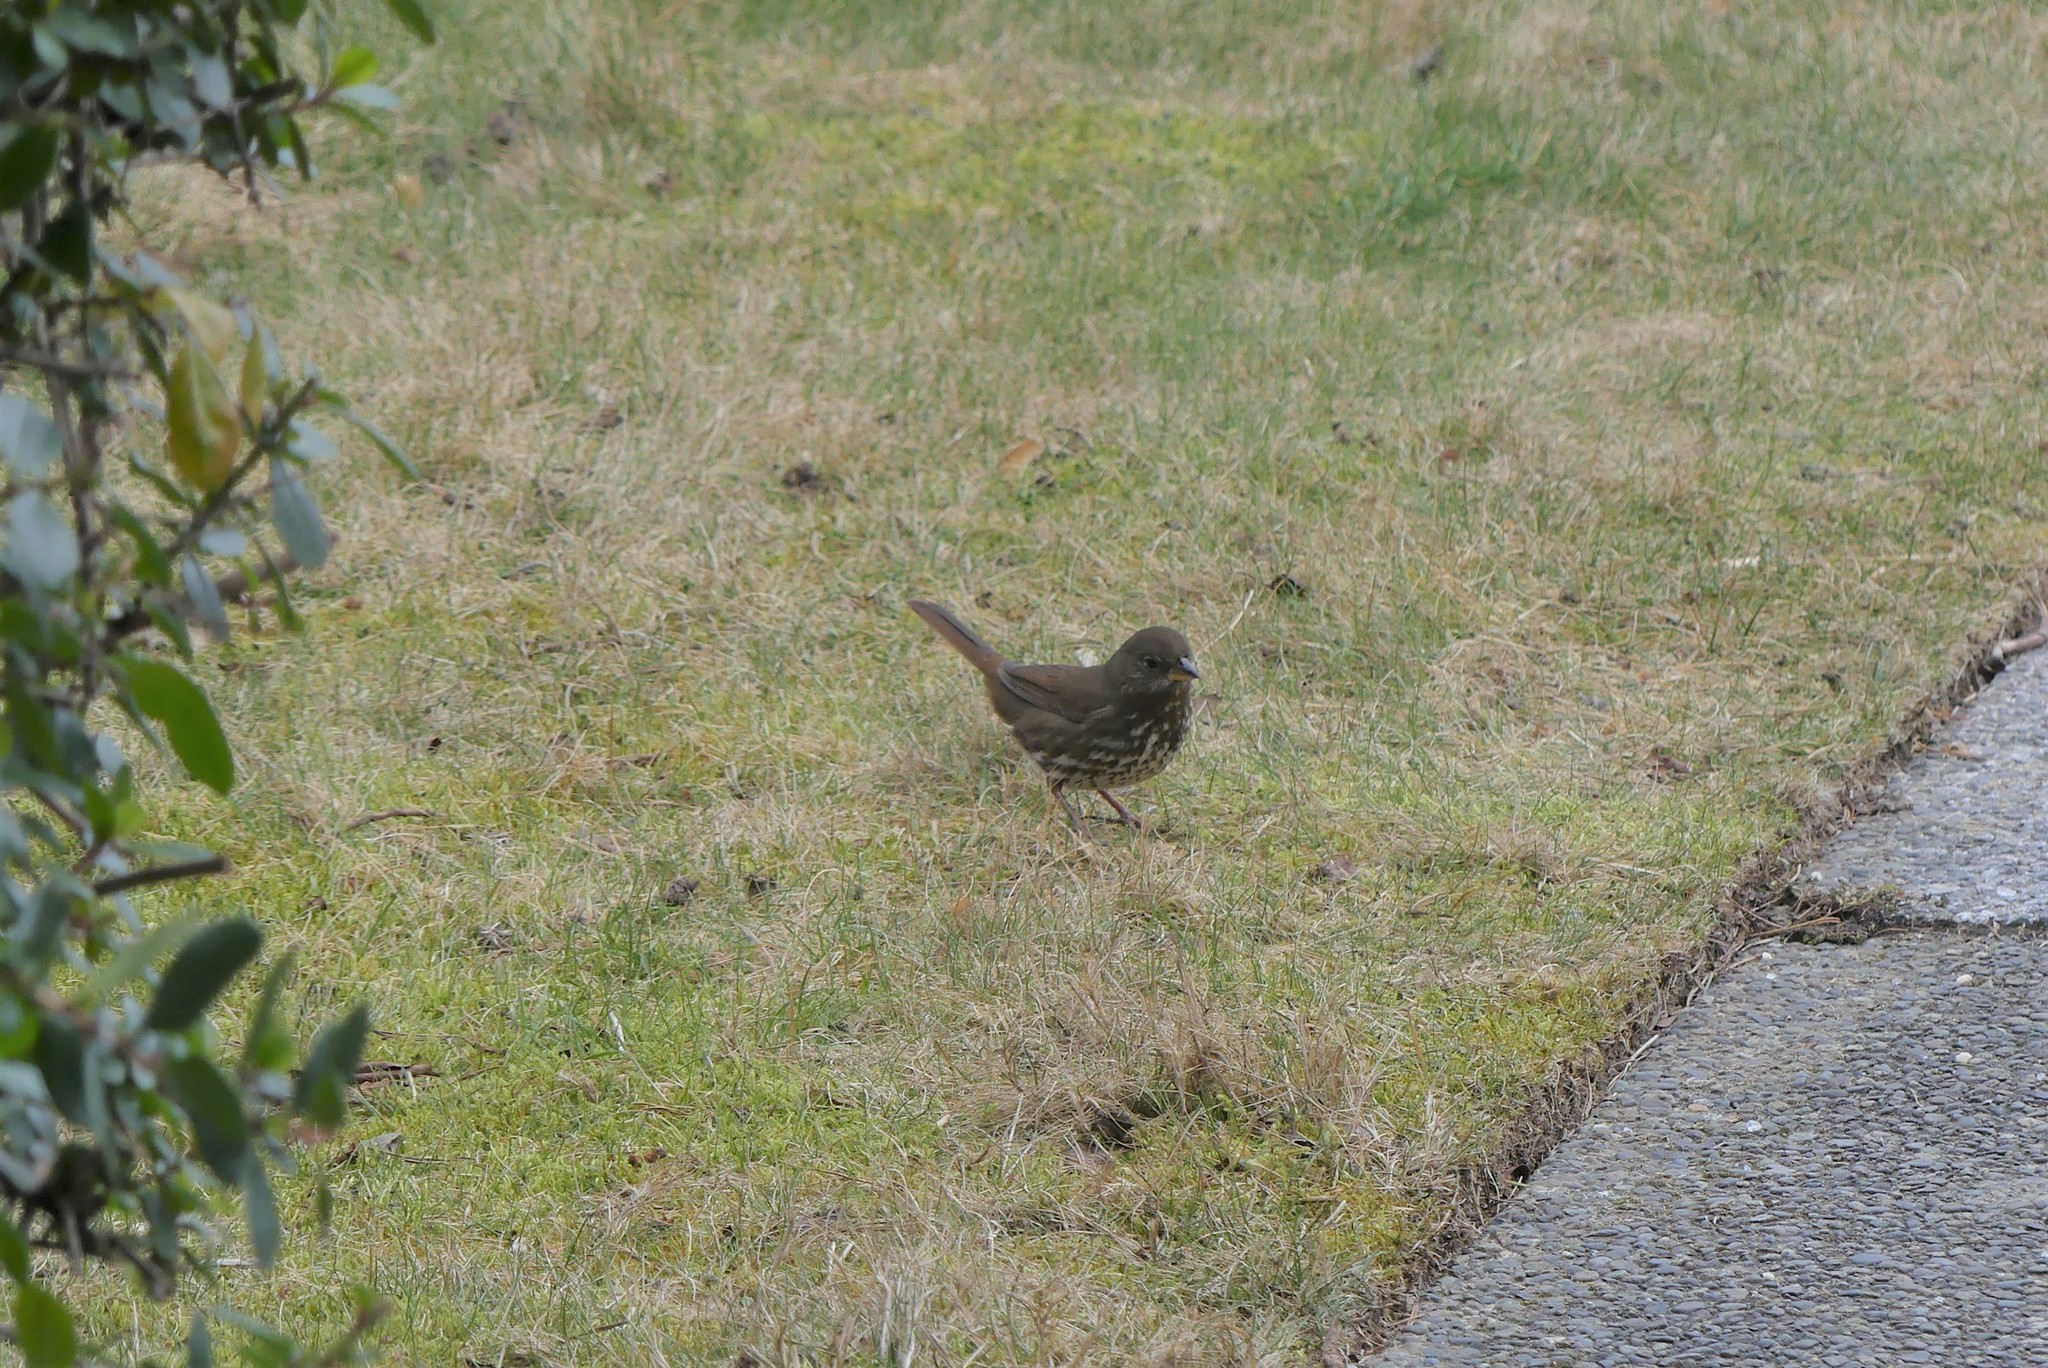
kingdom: Animalia
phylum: Chordata
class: Aves
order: Passeriformes
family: Passerellidae
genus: Passerella
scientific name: Passerella iliaca
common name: Fox sparrow
